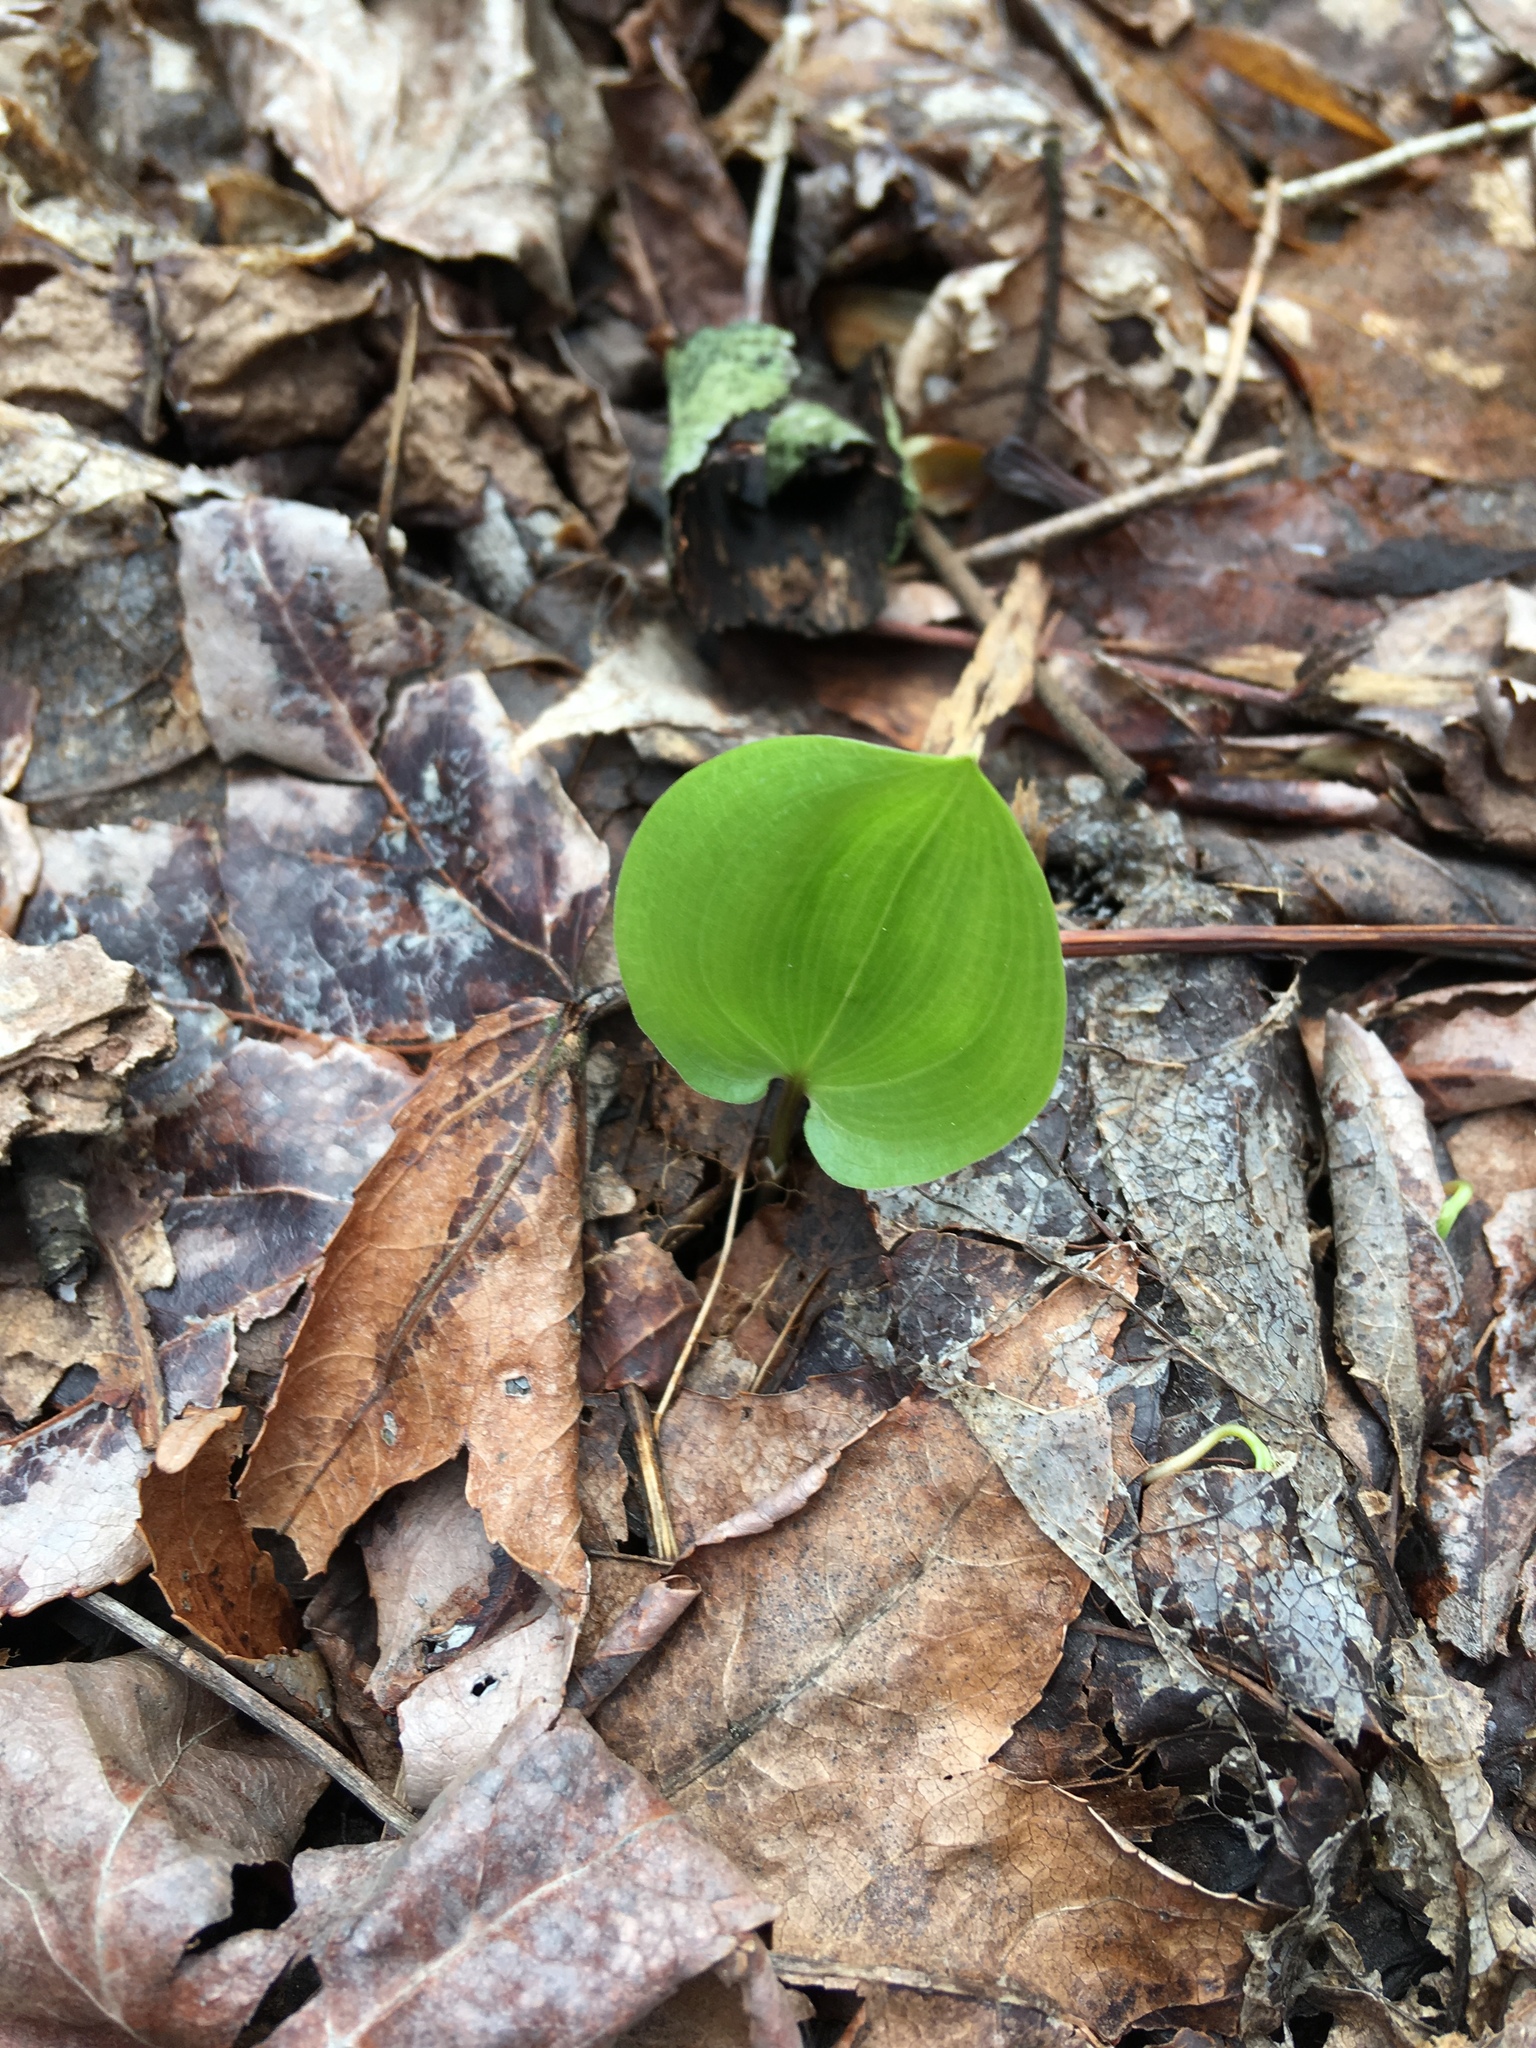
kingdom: Plantae
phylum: Tracheophyta
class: Liliopsida
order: Asparagales
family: Asparagaceae
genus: Maianthemum
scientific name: Maianthemum canadense
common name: False lily-of-the-valley
